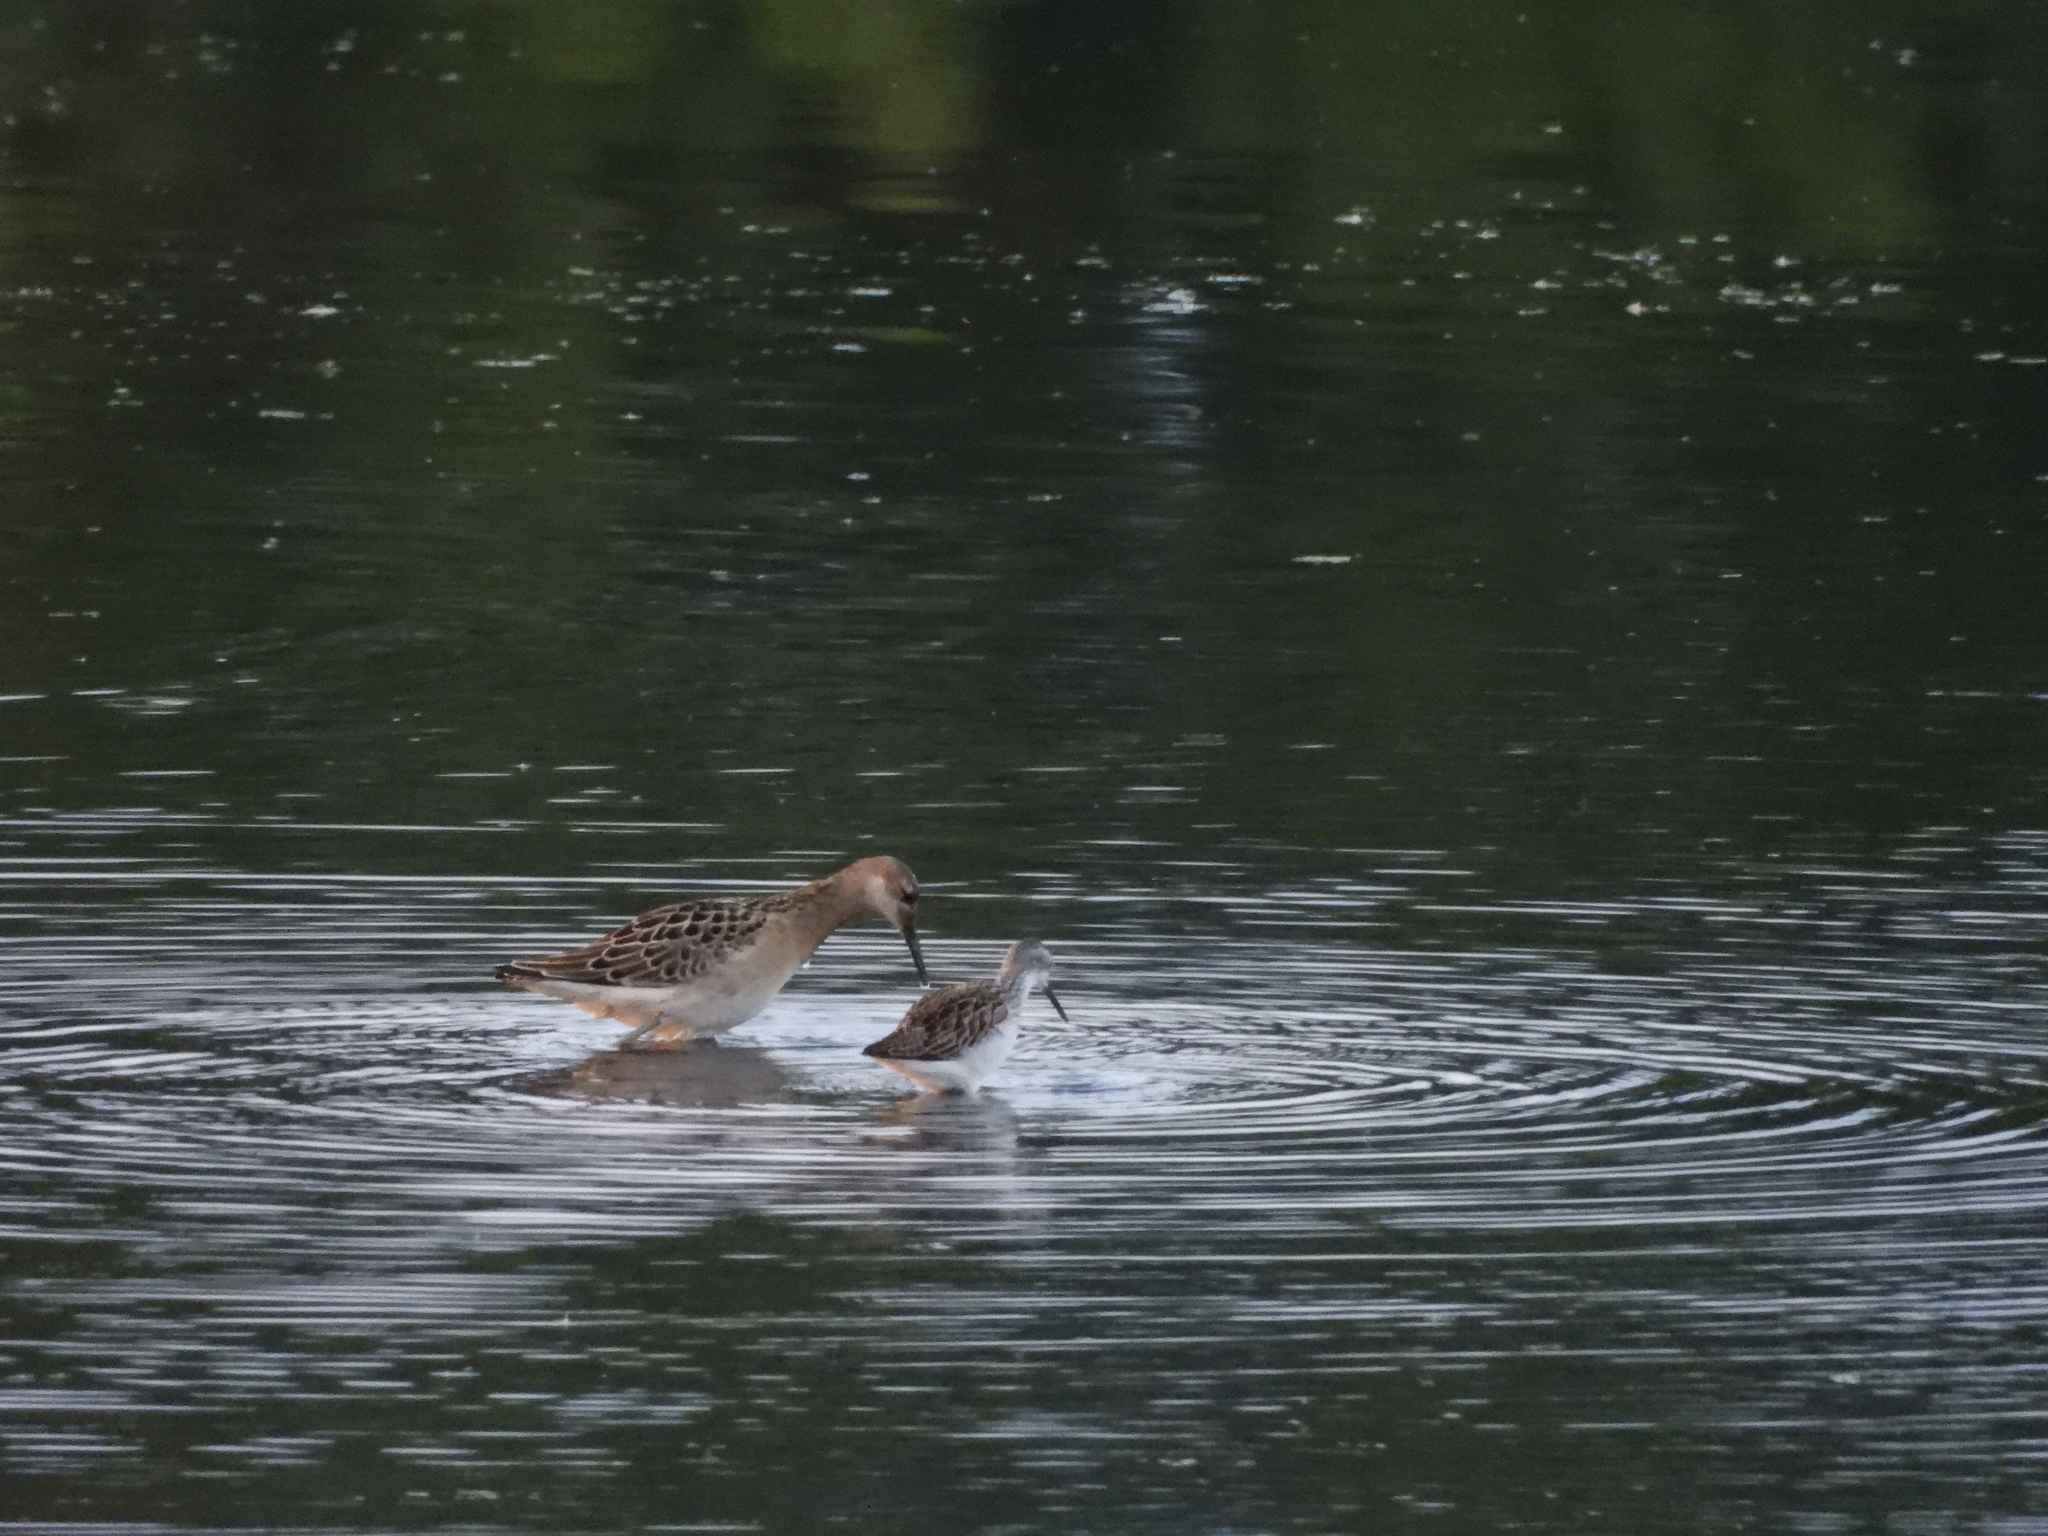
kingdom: Animalia
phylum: Chordata
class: Aves
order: Charadriiformes
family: Scolopacidae
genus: Calidris
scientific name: Calidris pugnax
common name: Ruff
